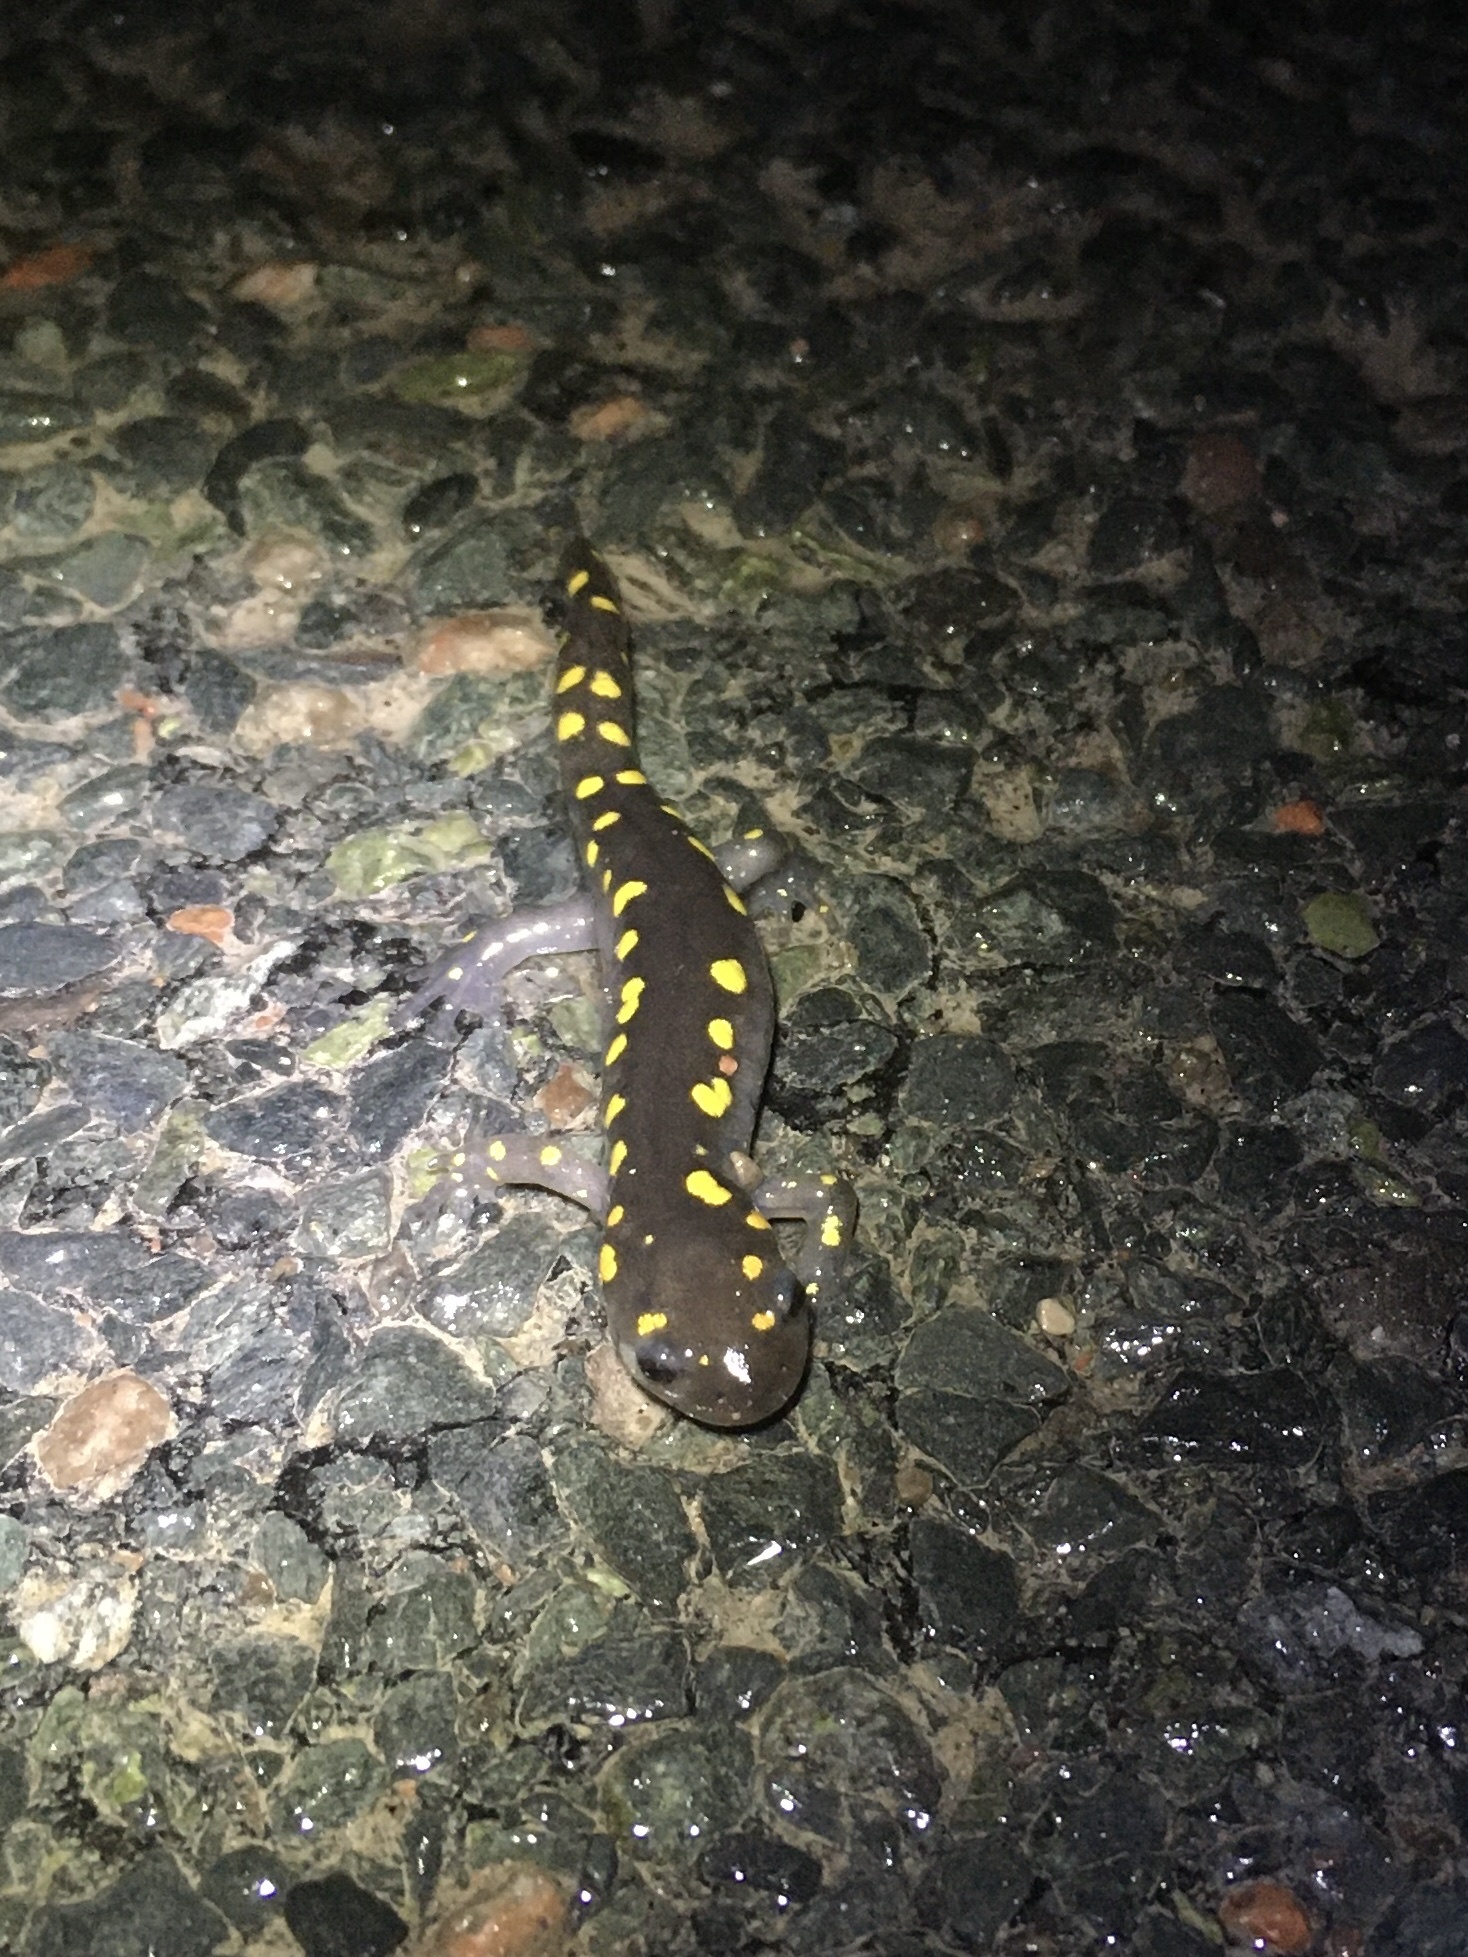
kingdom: Animalia
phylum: Chordata
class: Amphibia
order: Caudata
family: Ambystomatidae
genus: Ambystoma
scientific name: Ambystoma maculatum
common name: Spotted salamander
